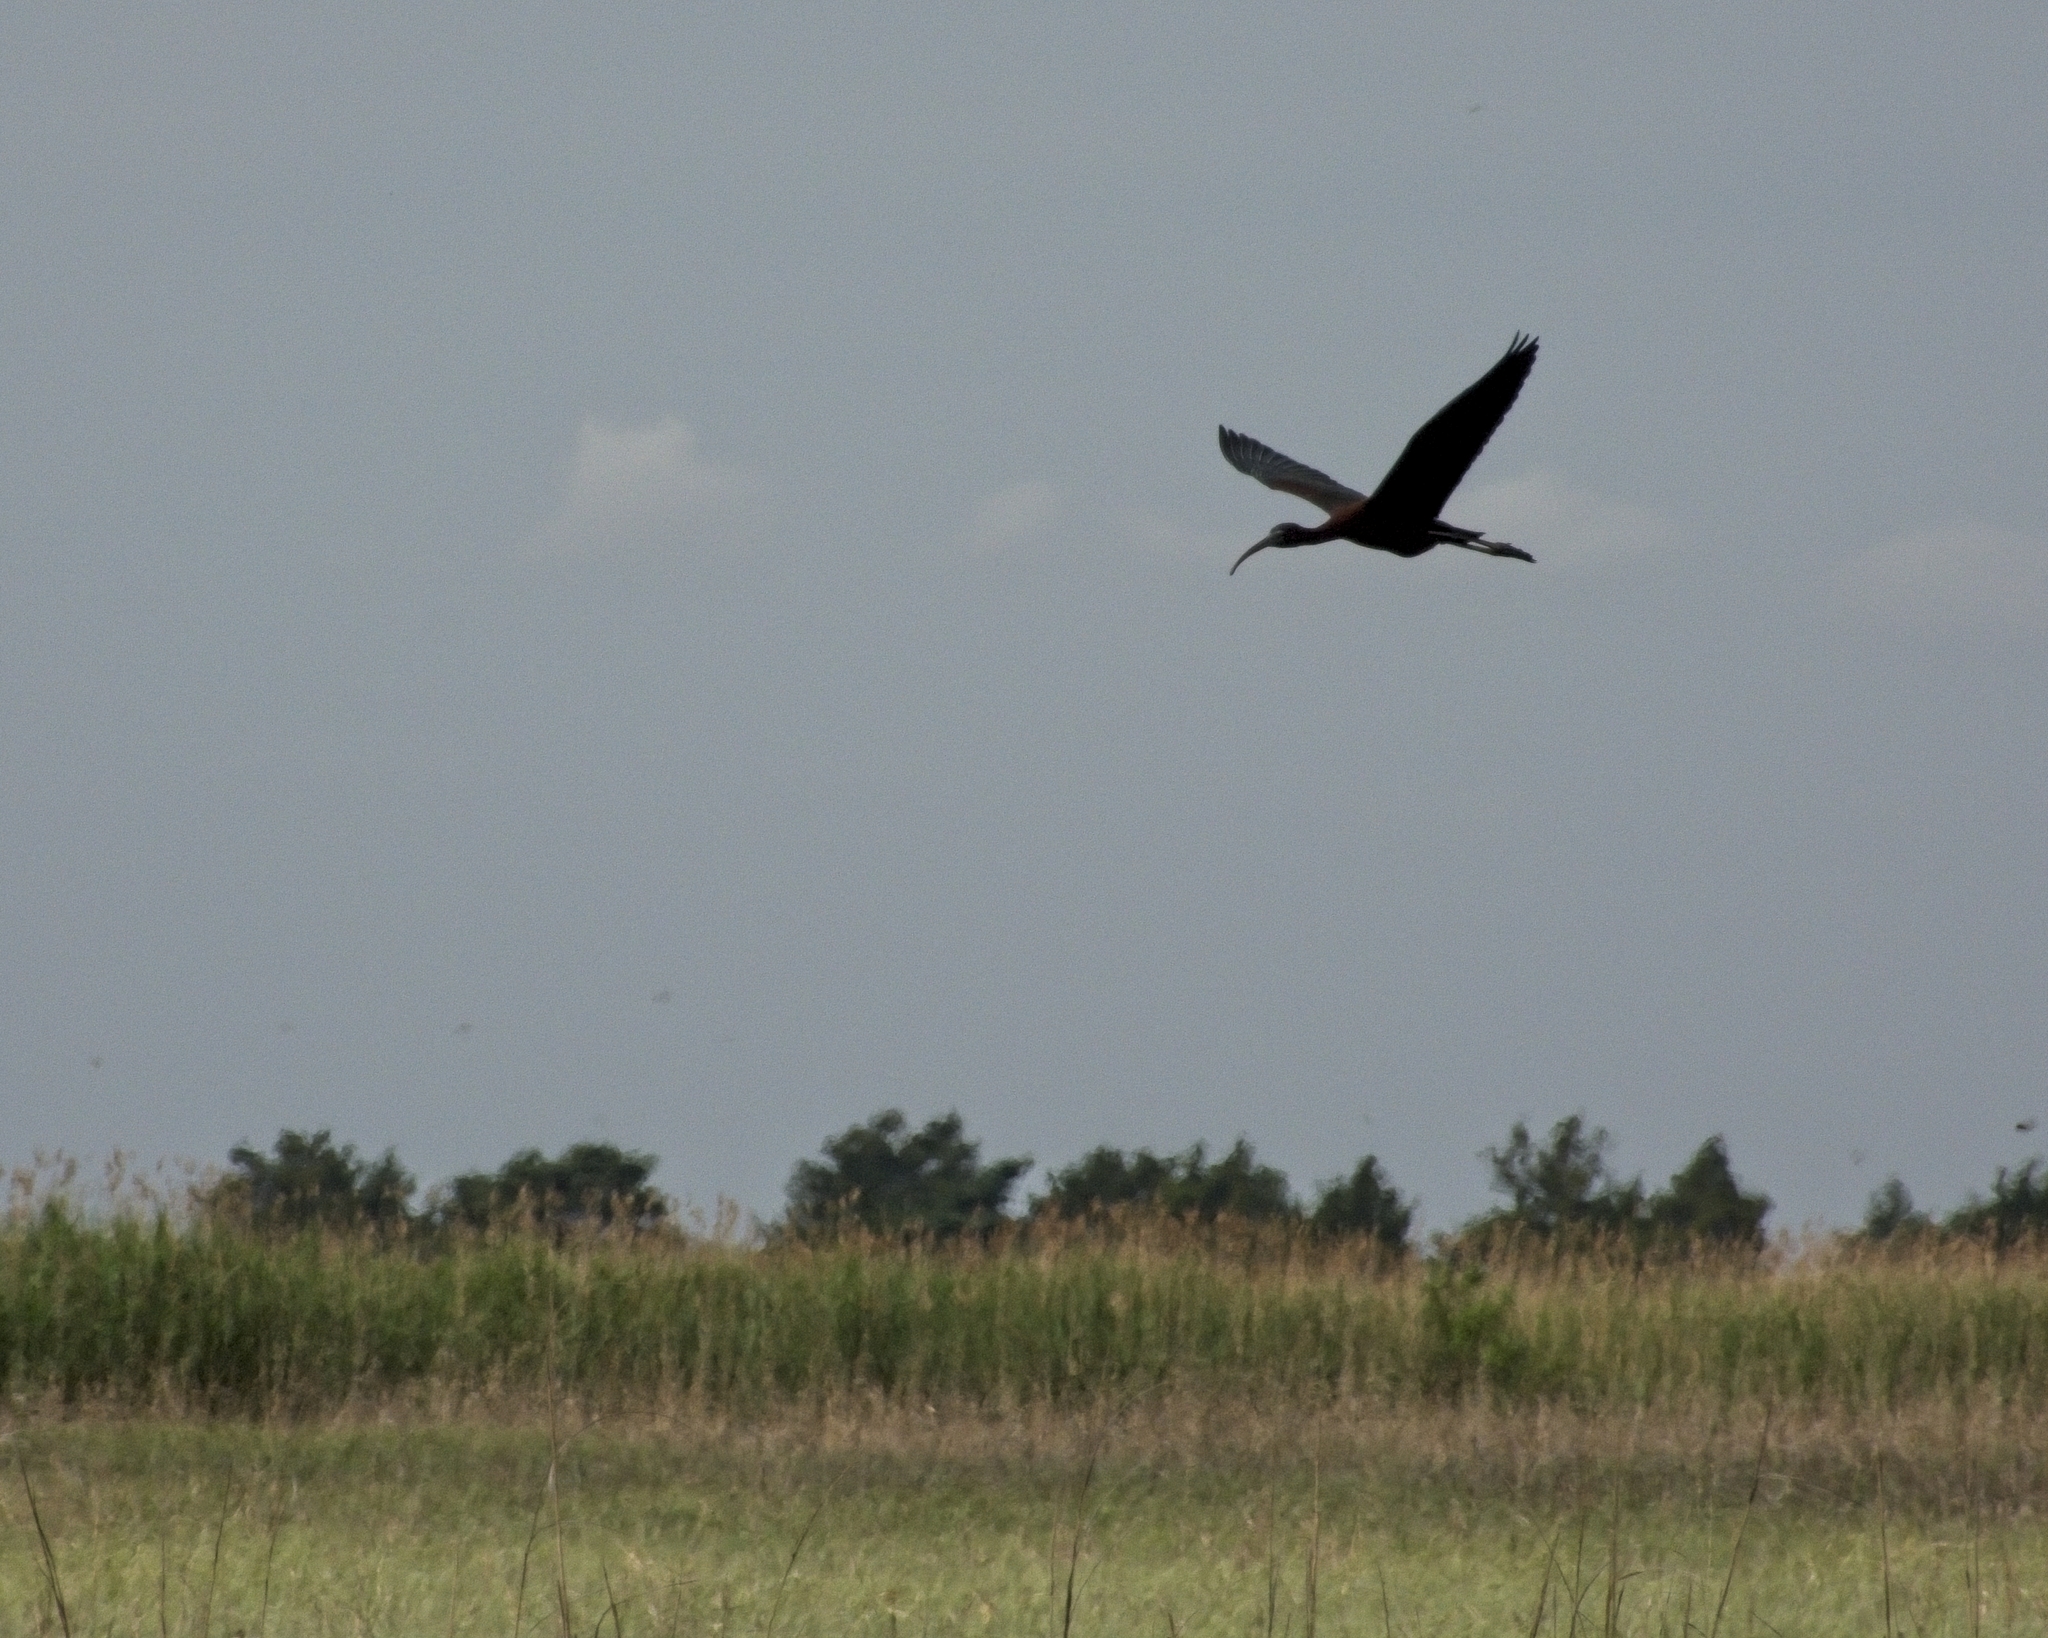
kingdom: Animalia
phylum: Chordata
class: Aves
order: Pelecaniformes
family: Threskiornithidae
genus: Plegadis
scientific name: Plegadis falcinellus
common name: Glossy ibis
